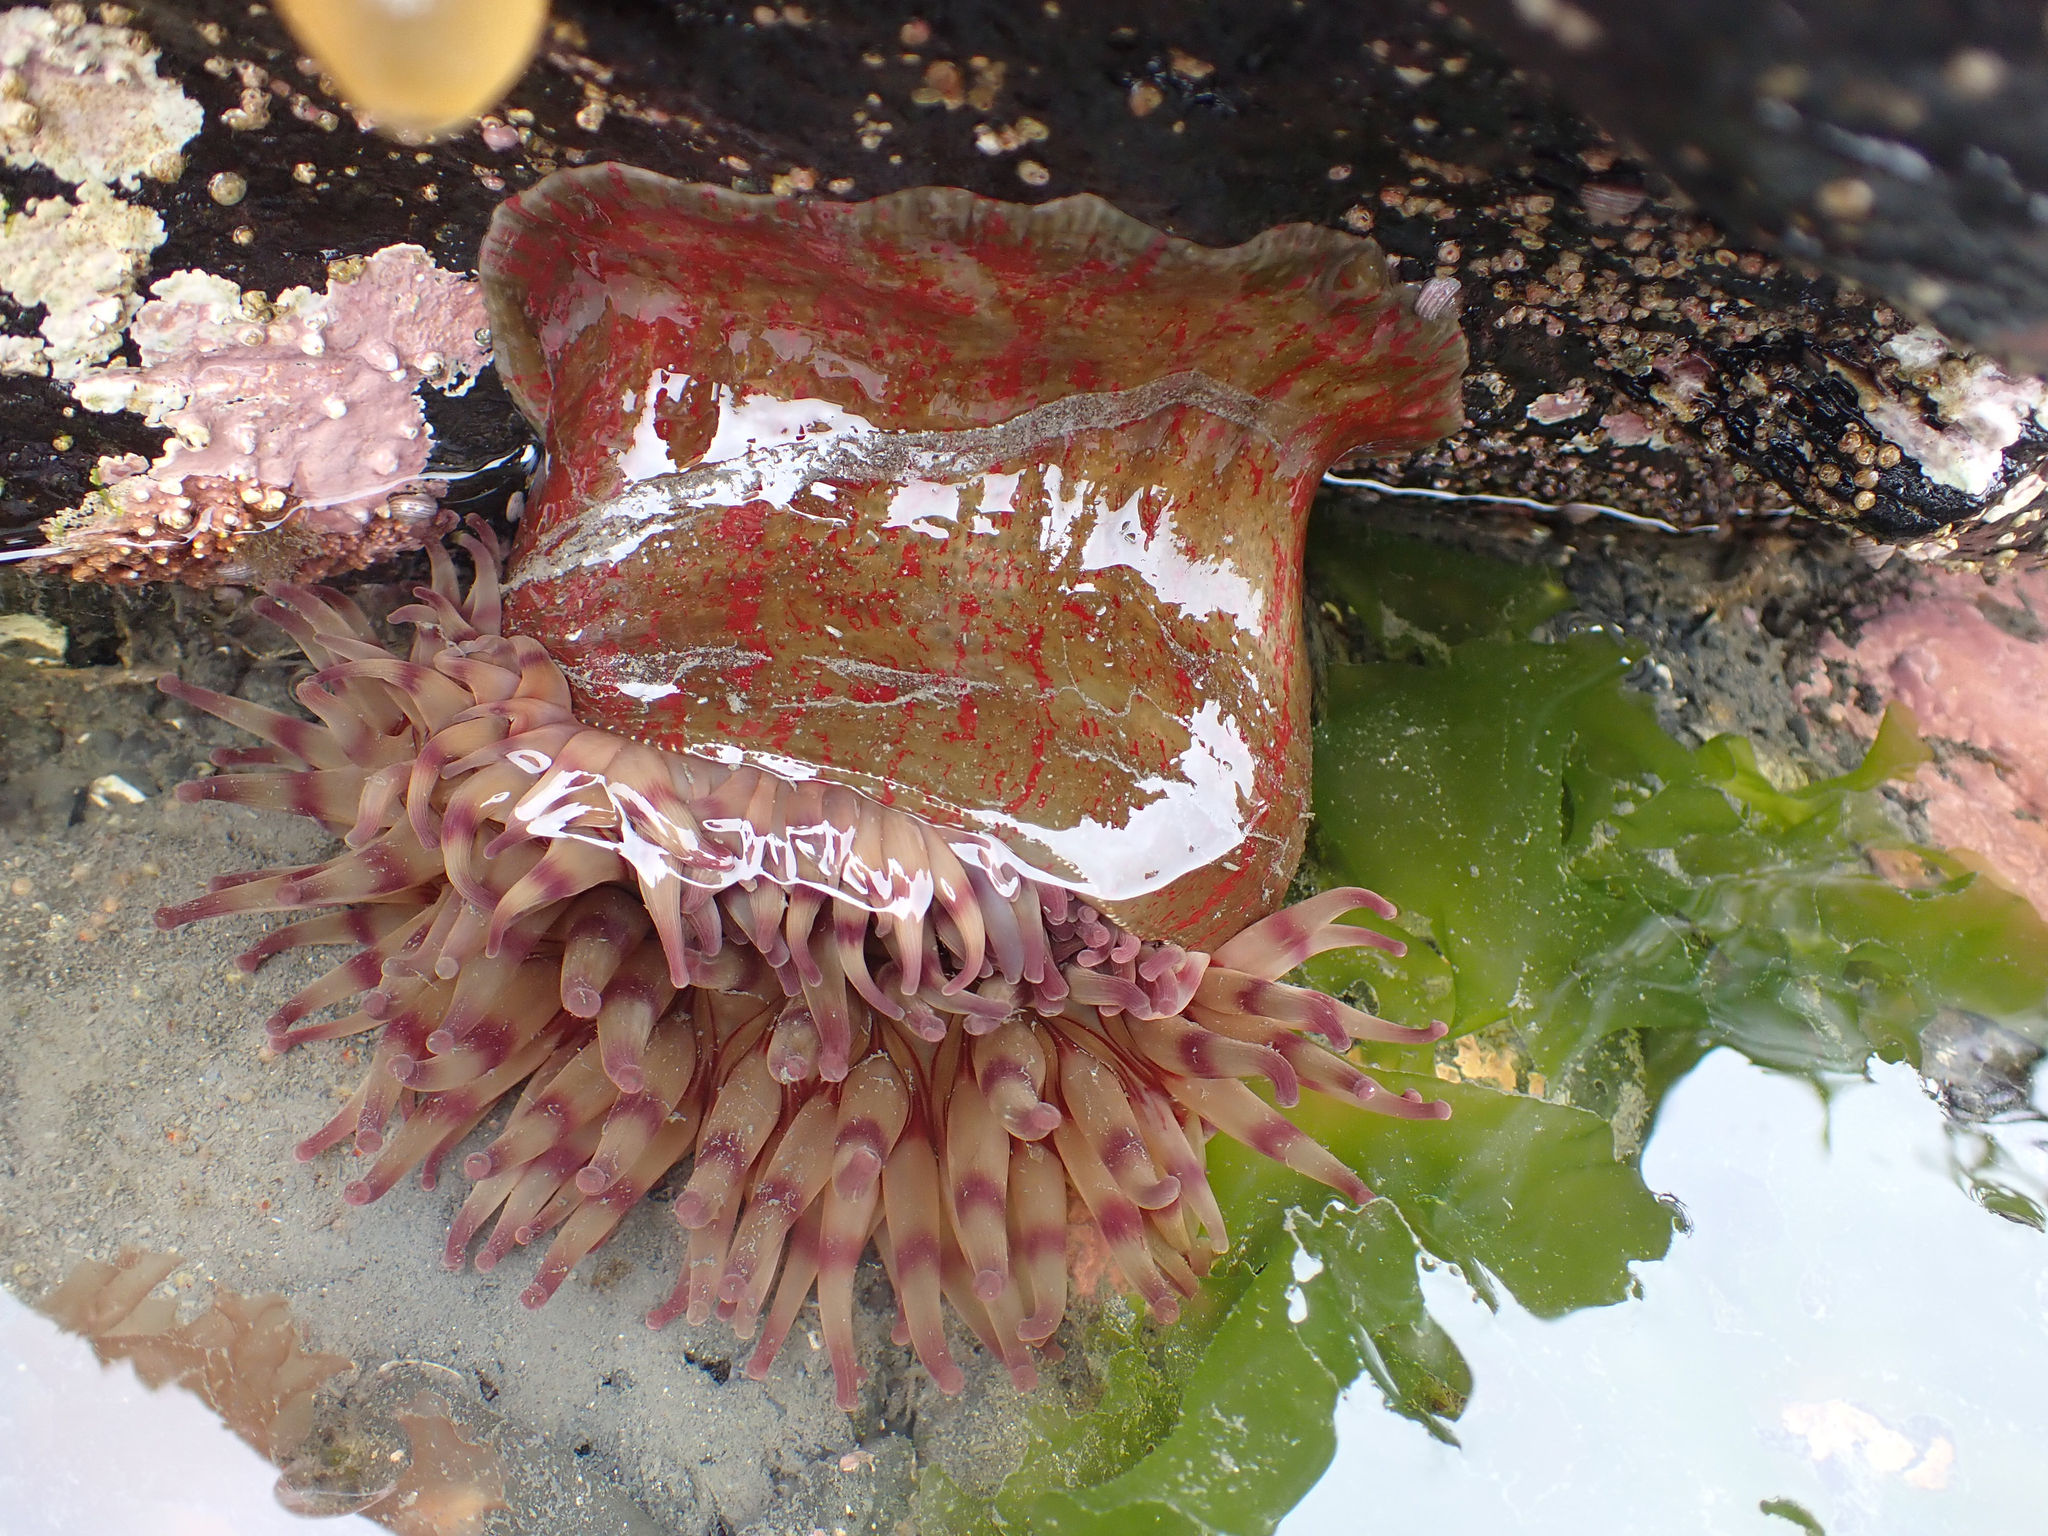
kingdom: Animalia
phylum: Cnidaria
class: Anthozoa
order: Actiniaria
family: Actiniidae
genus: Urticina
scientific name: Urticina grebelnyi
